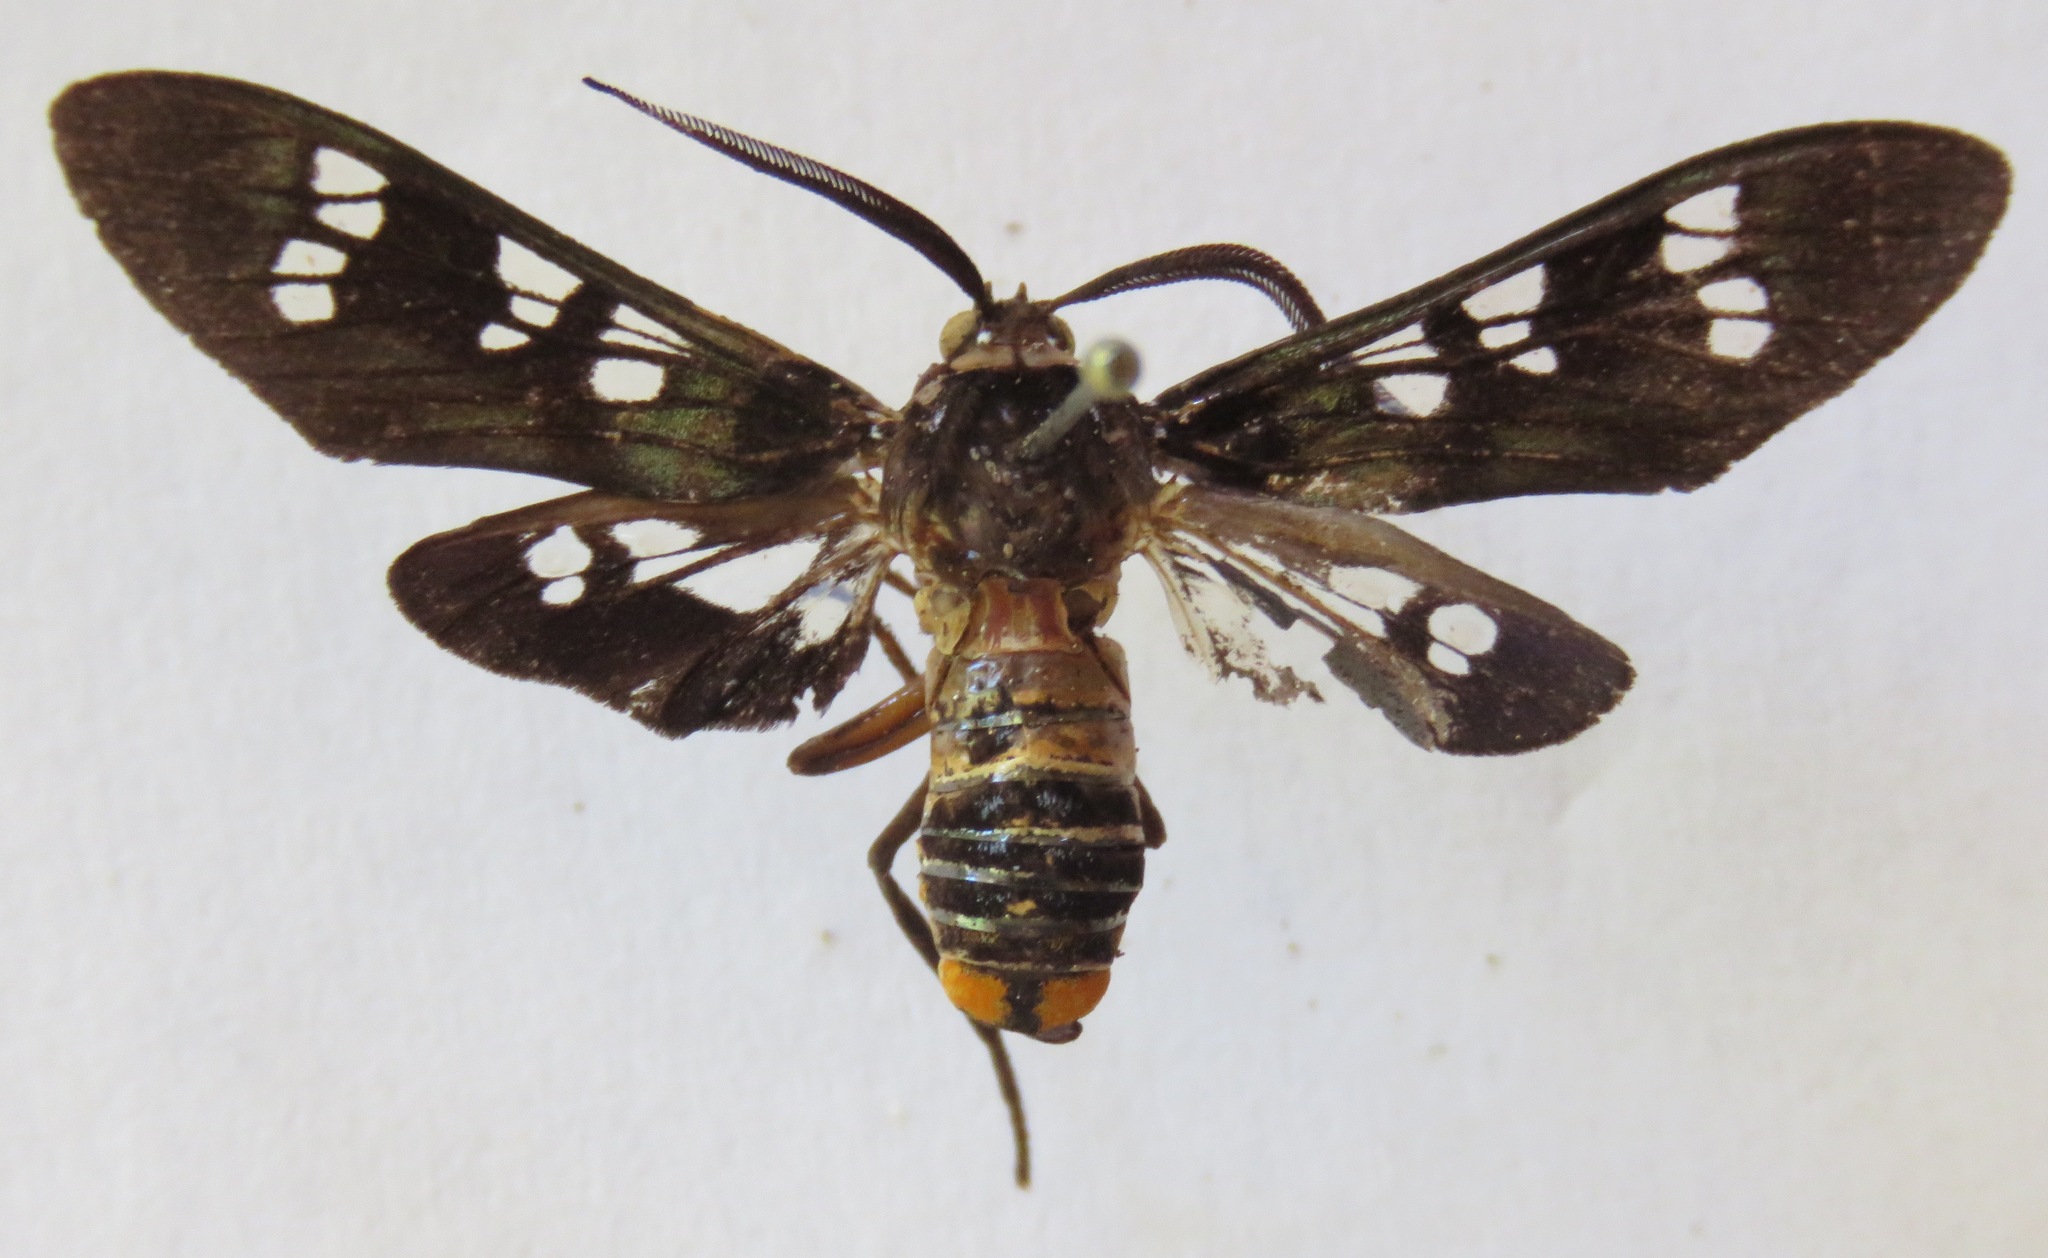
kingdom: Animalia
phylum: Arthropoda
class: Insecta
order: Lepidoptera
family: Erebidae
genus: Euchlorostola
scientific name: Euchlorostola corydon
